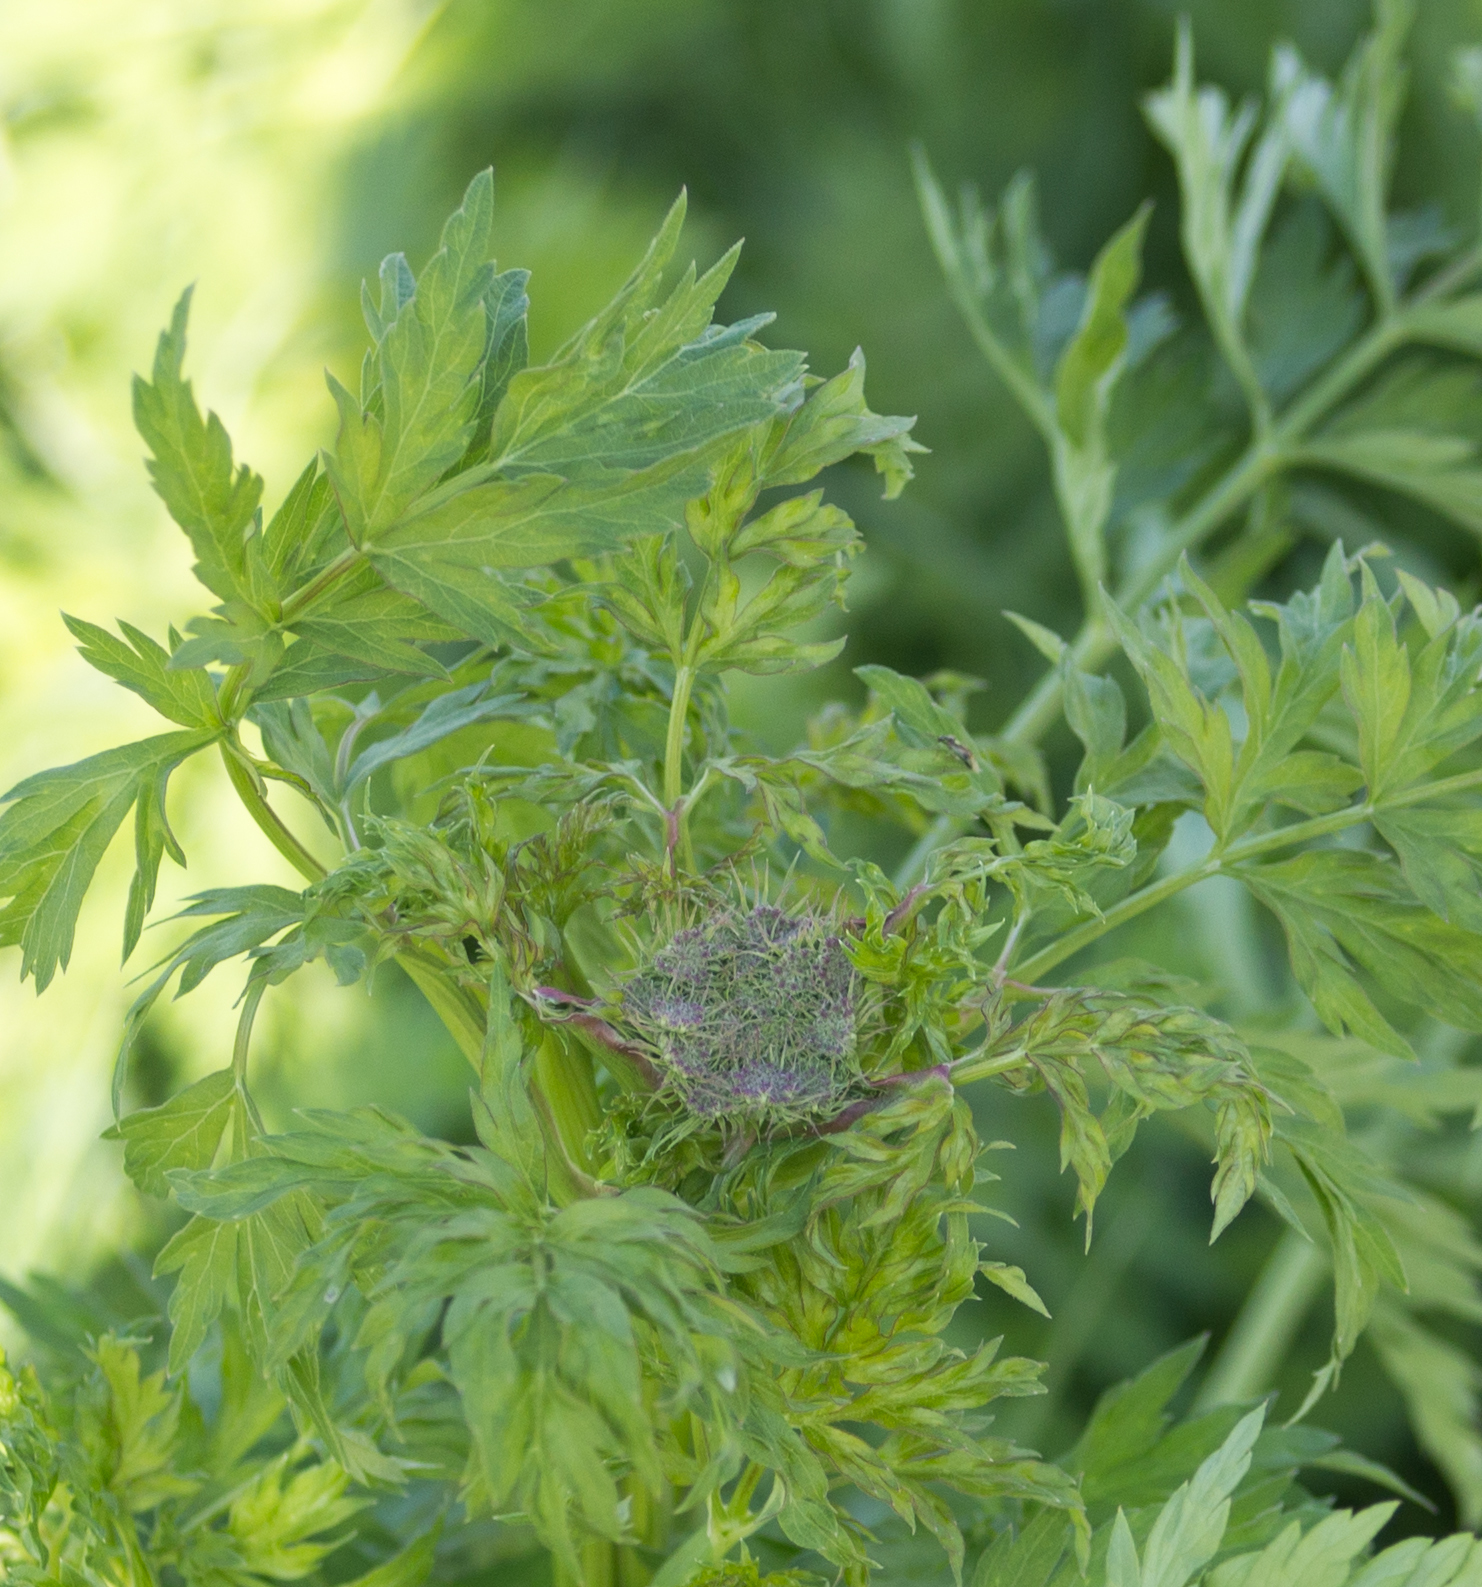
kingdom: Plantae
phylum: Tracheophyta
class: Magnoliopsida
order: Apiales
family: Apiaceae
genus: Seseli
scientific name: Seseli libanotis
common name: Mooncarrot
